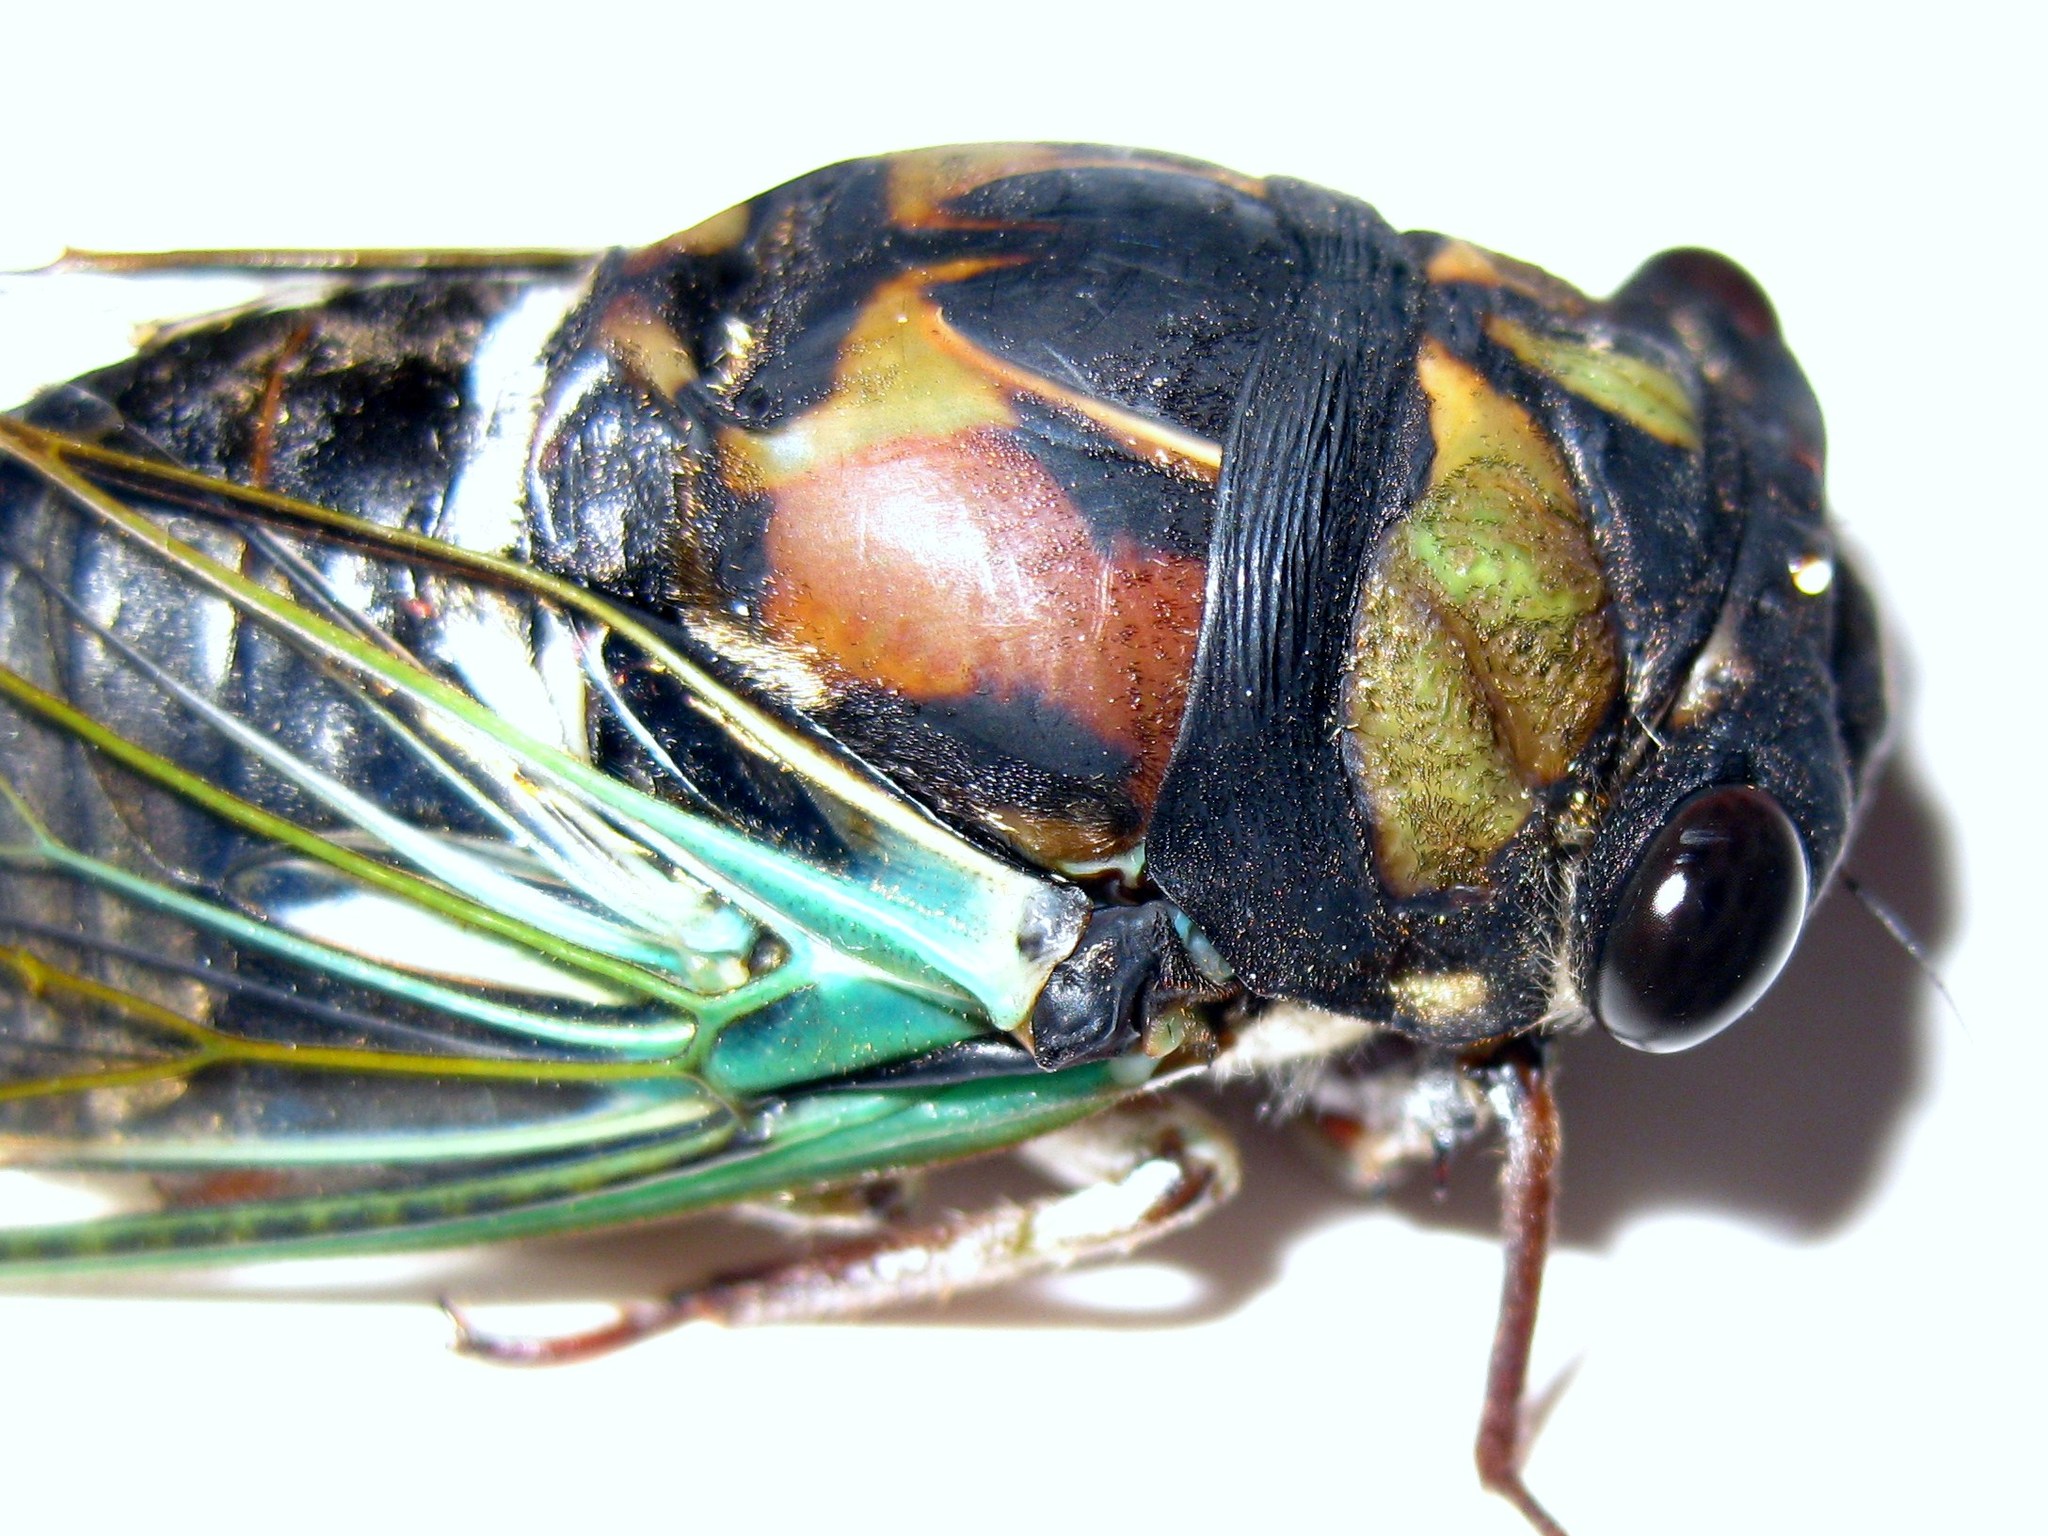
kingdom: Animalia
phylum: Arthropoda
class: Insecta
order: Hemiptera
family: Cicadidae
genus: Neotibicen
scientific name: Neotibicen lyricen
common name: Lyric cicada
